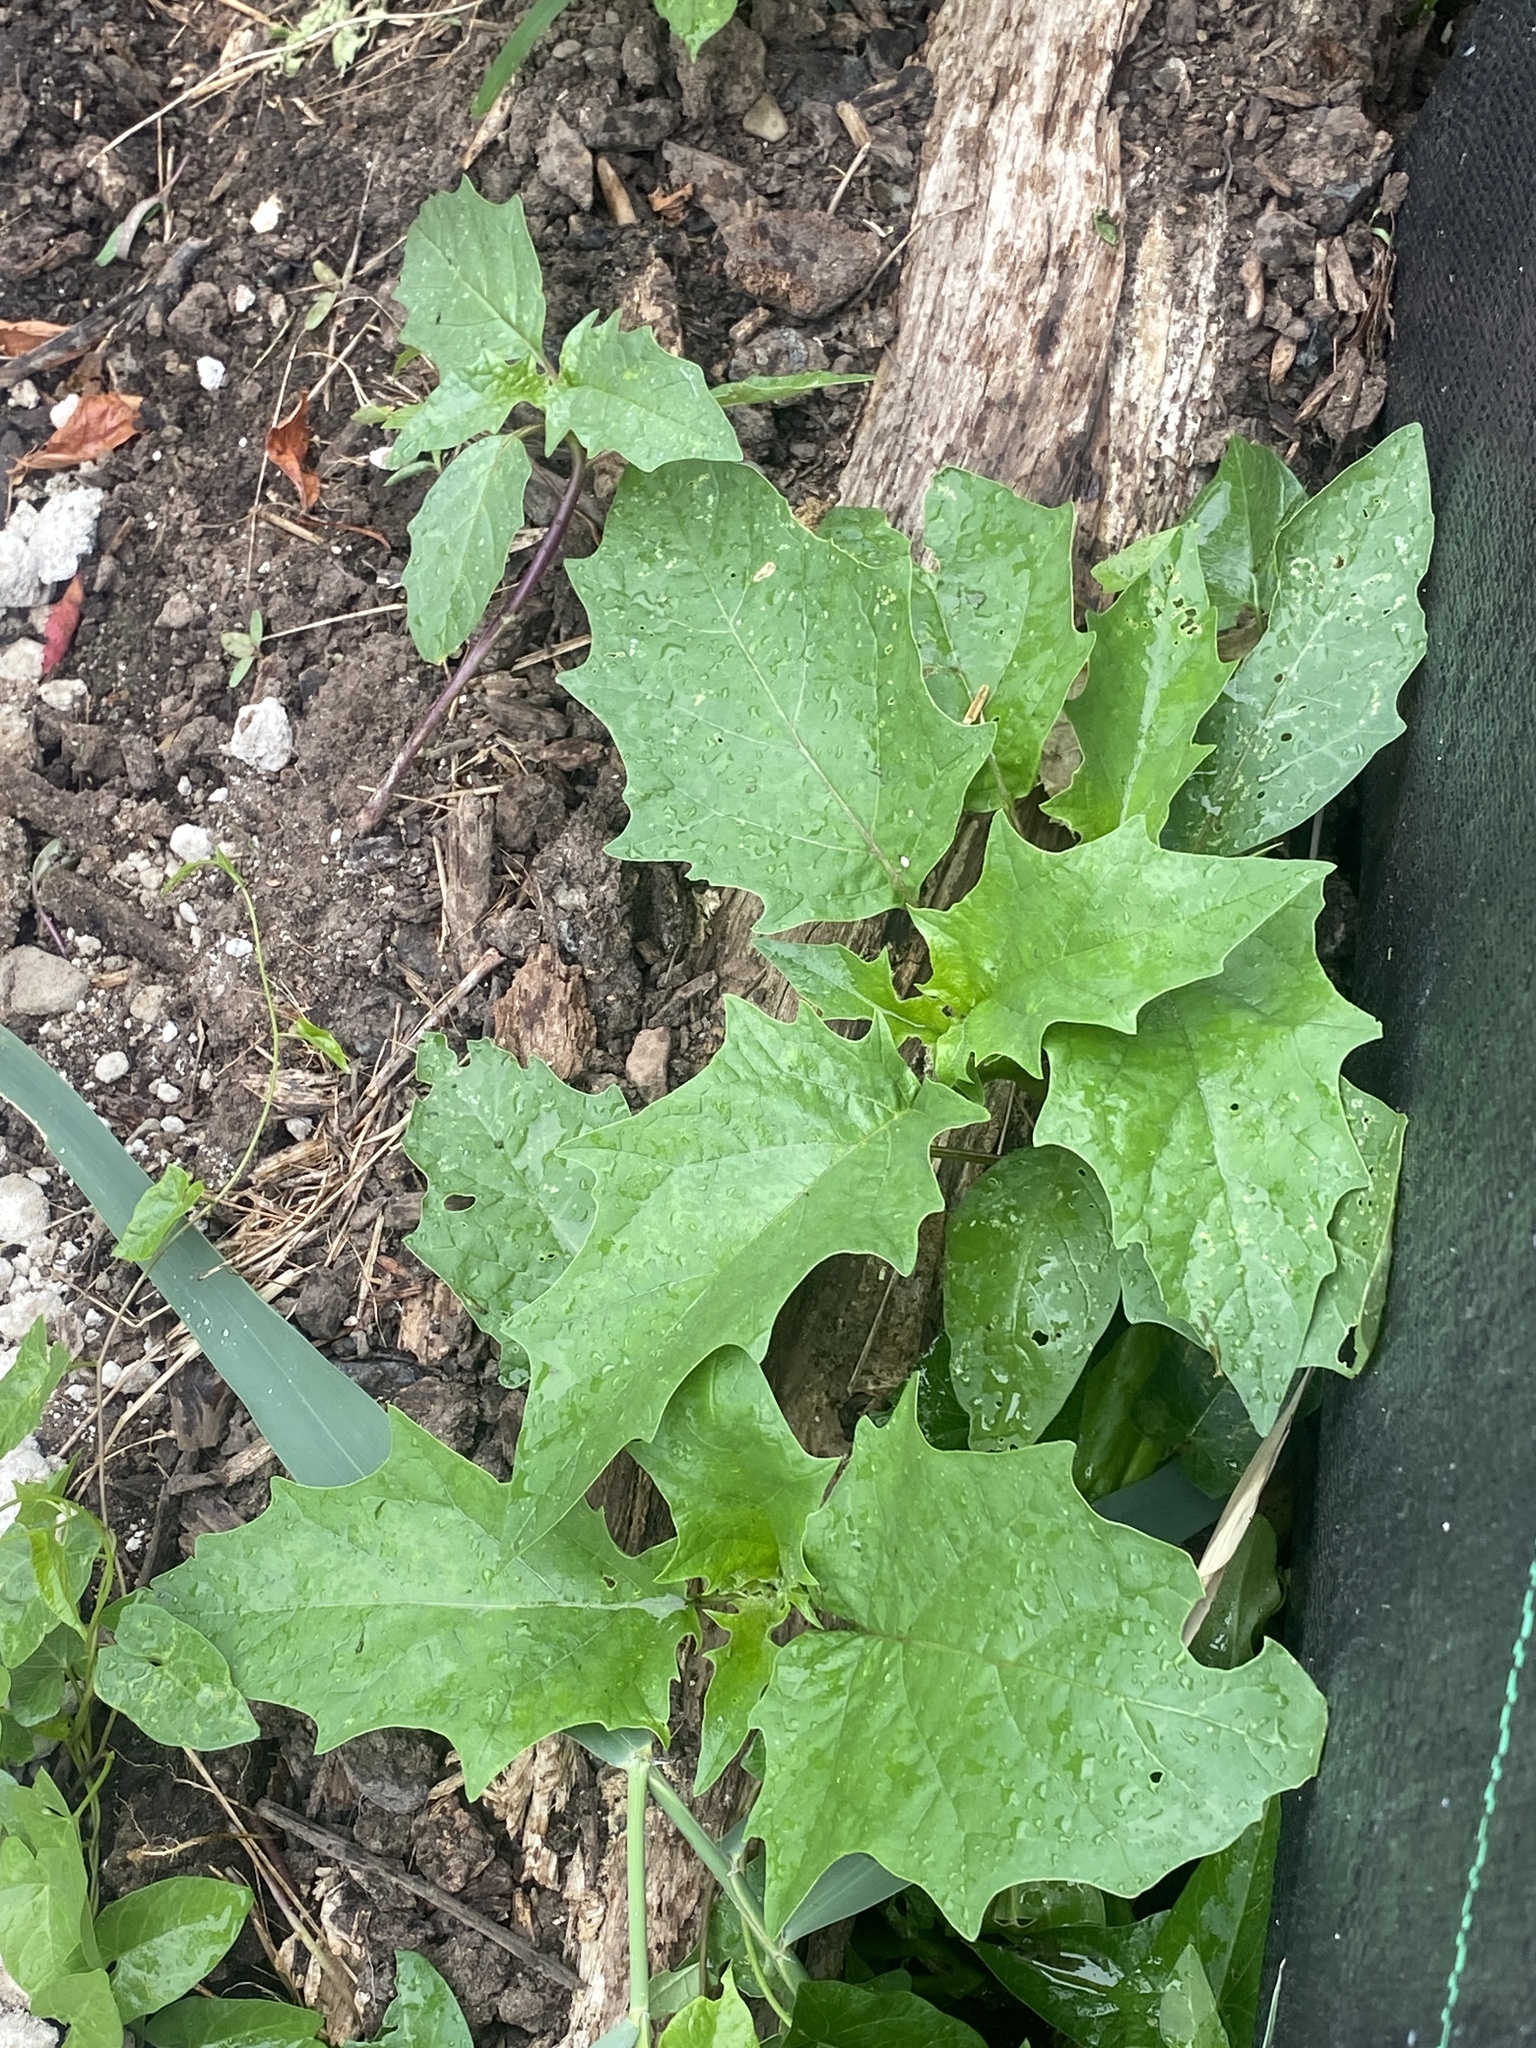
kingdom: Plantae
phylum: Tracheophyta
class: Magnoliopsida
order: Solanales
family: Solanaceae
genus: Datura
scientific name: Datura stramonium
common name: Thorn-apple
